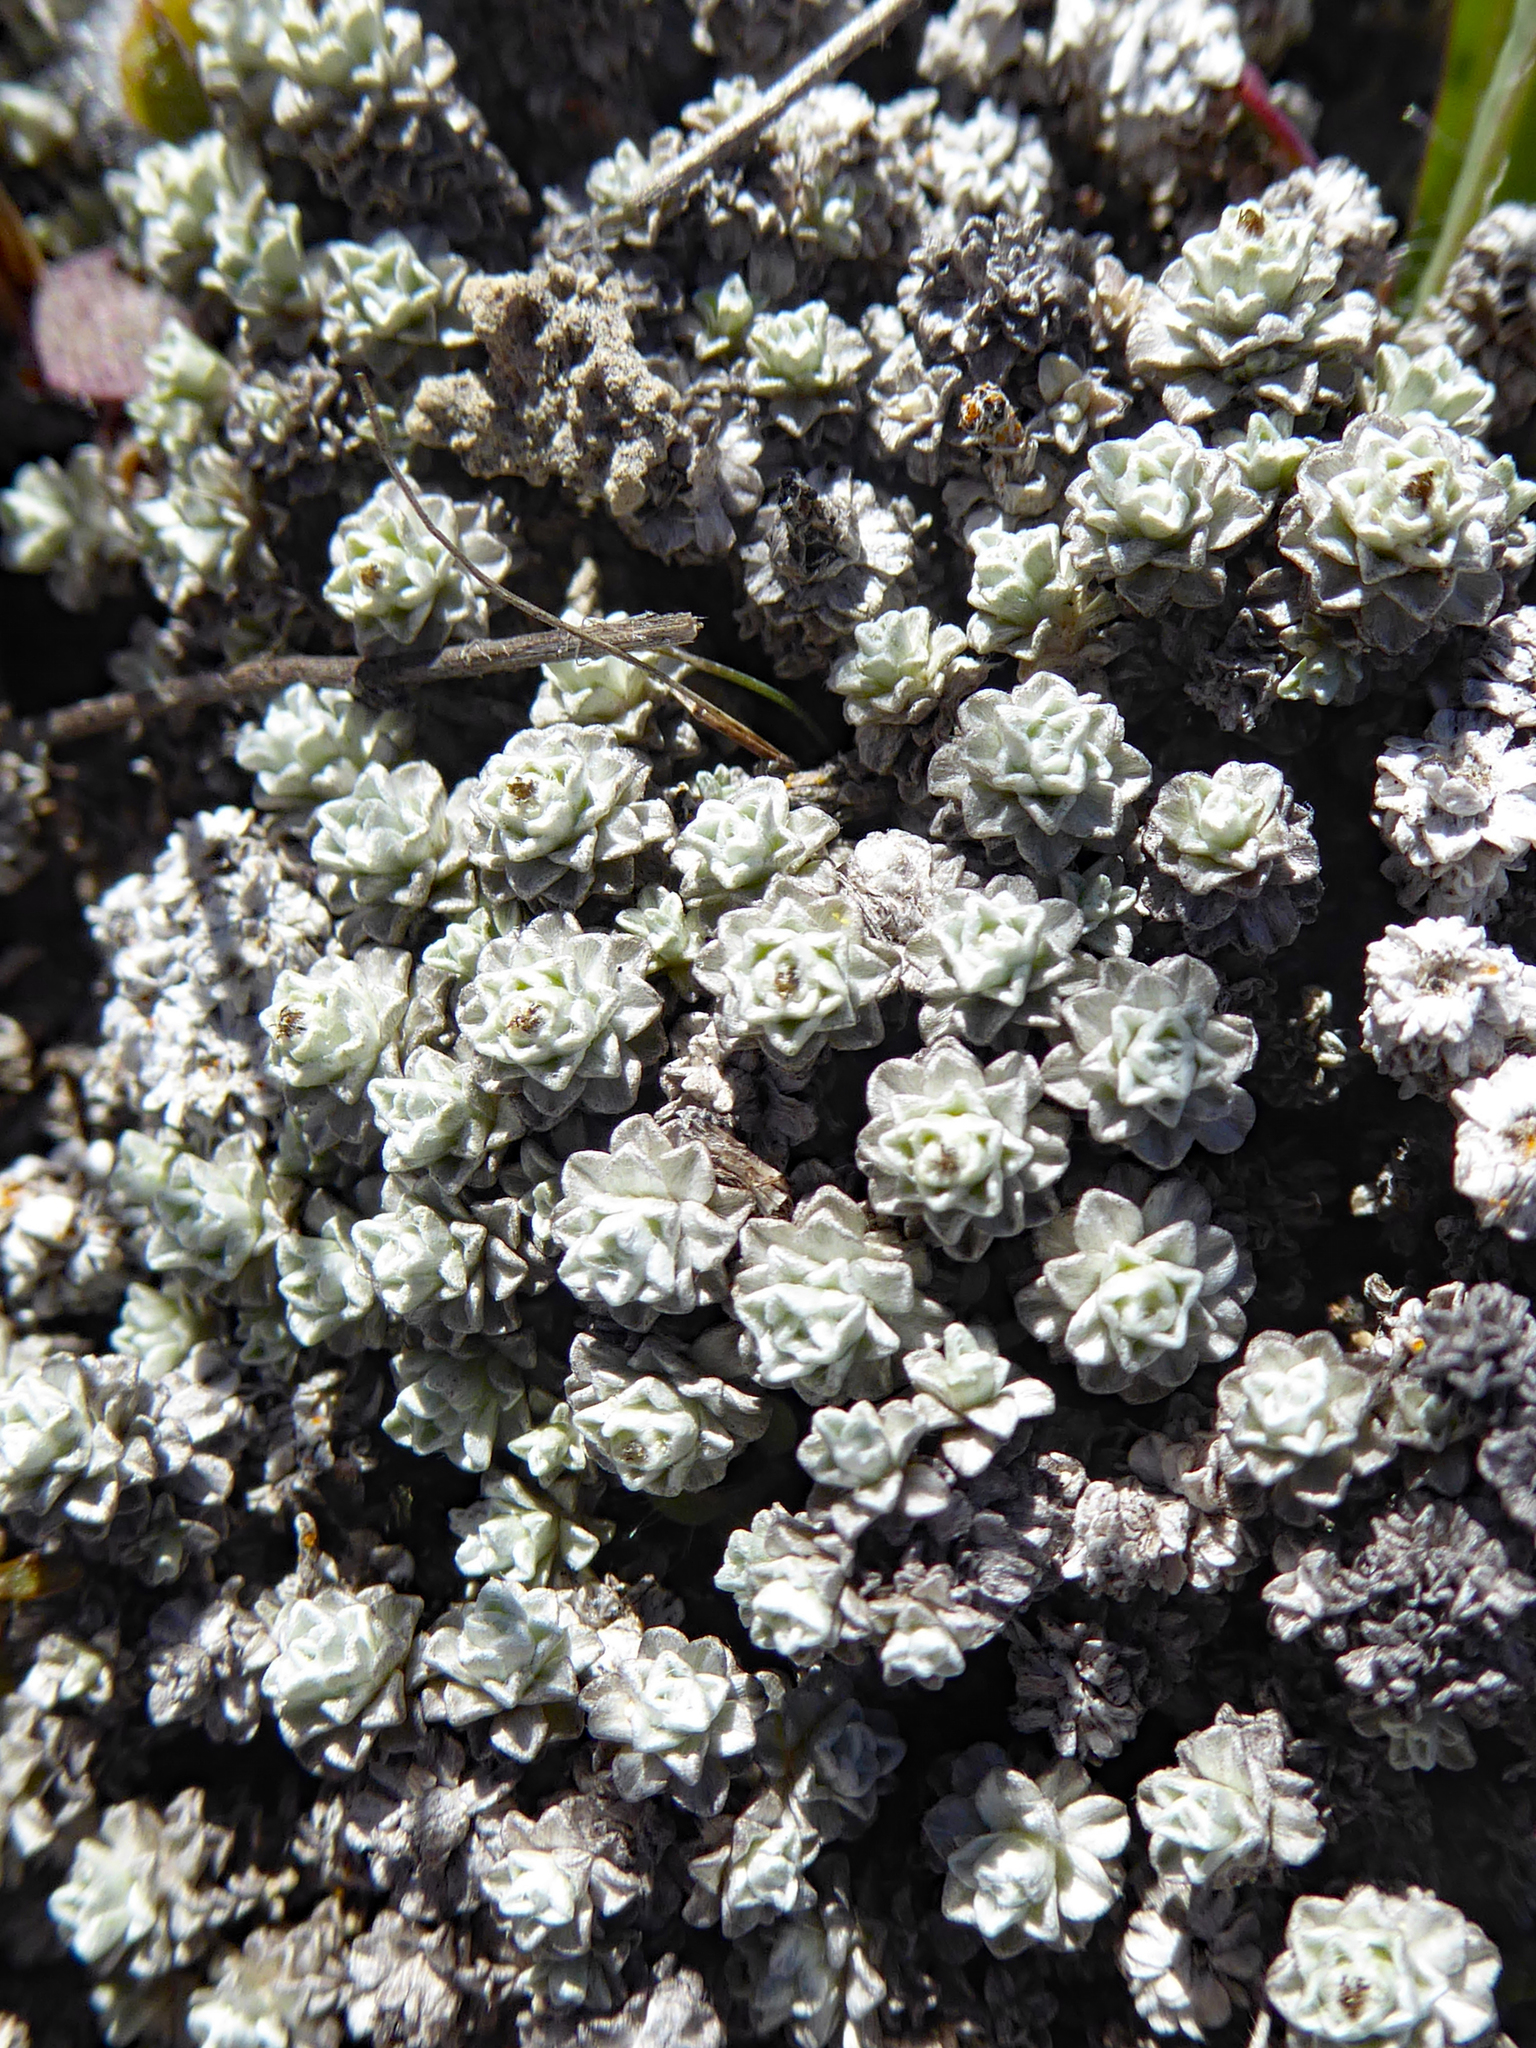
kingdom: Plantae
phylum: Tracheophyta
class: Magnoliopsida
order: Asterales
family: Asteraceae
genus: Raoulia
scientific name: Raoulia apicinigra
